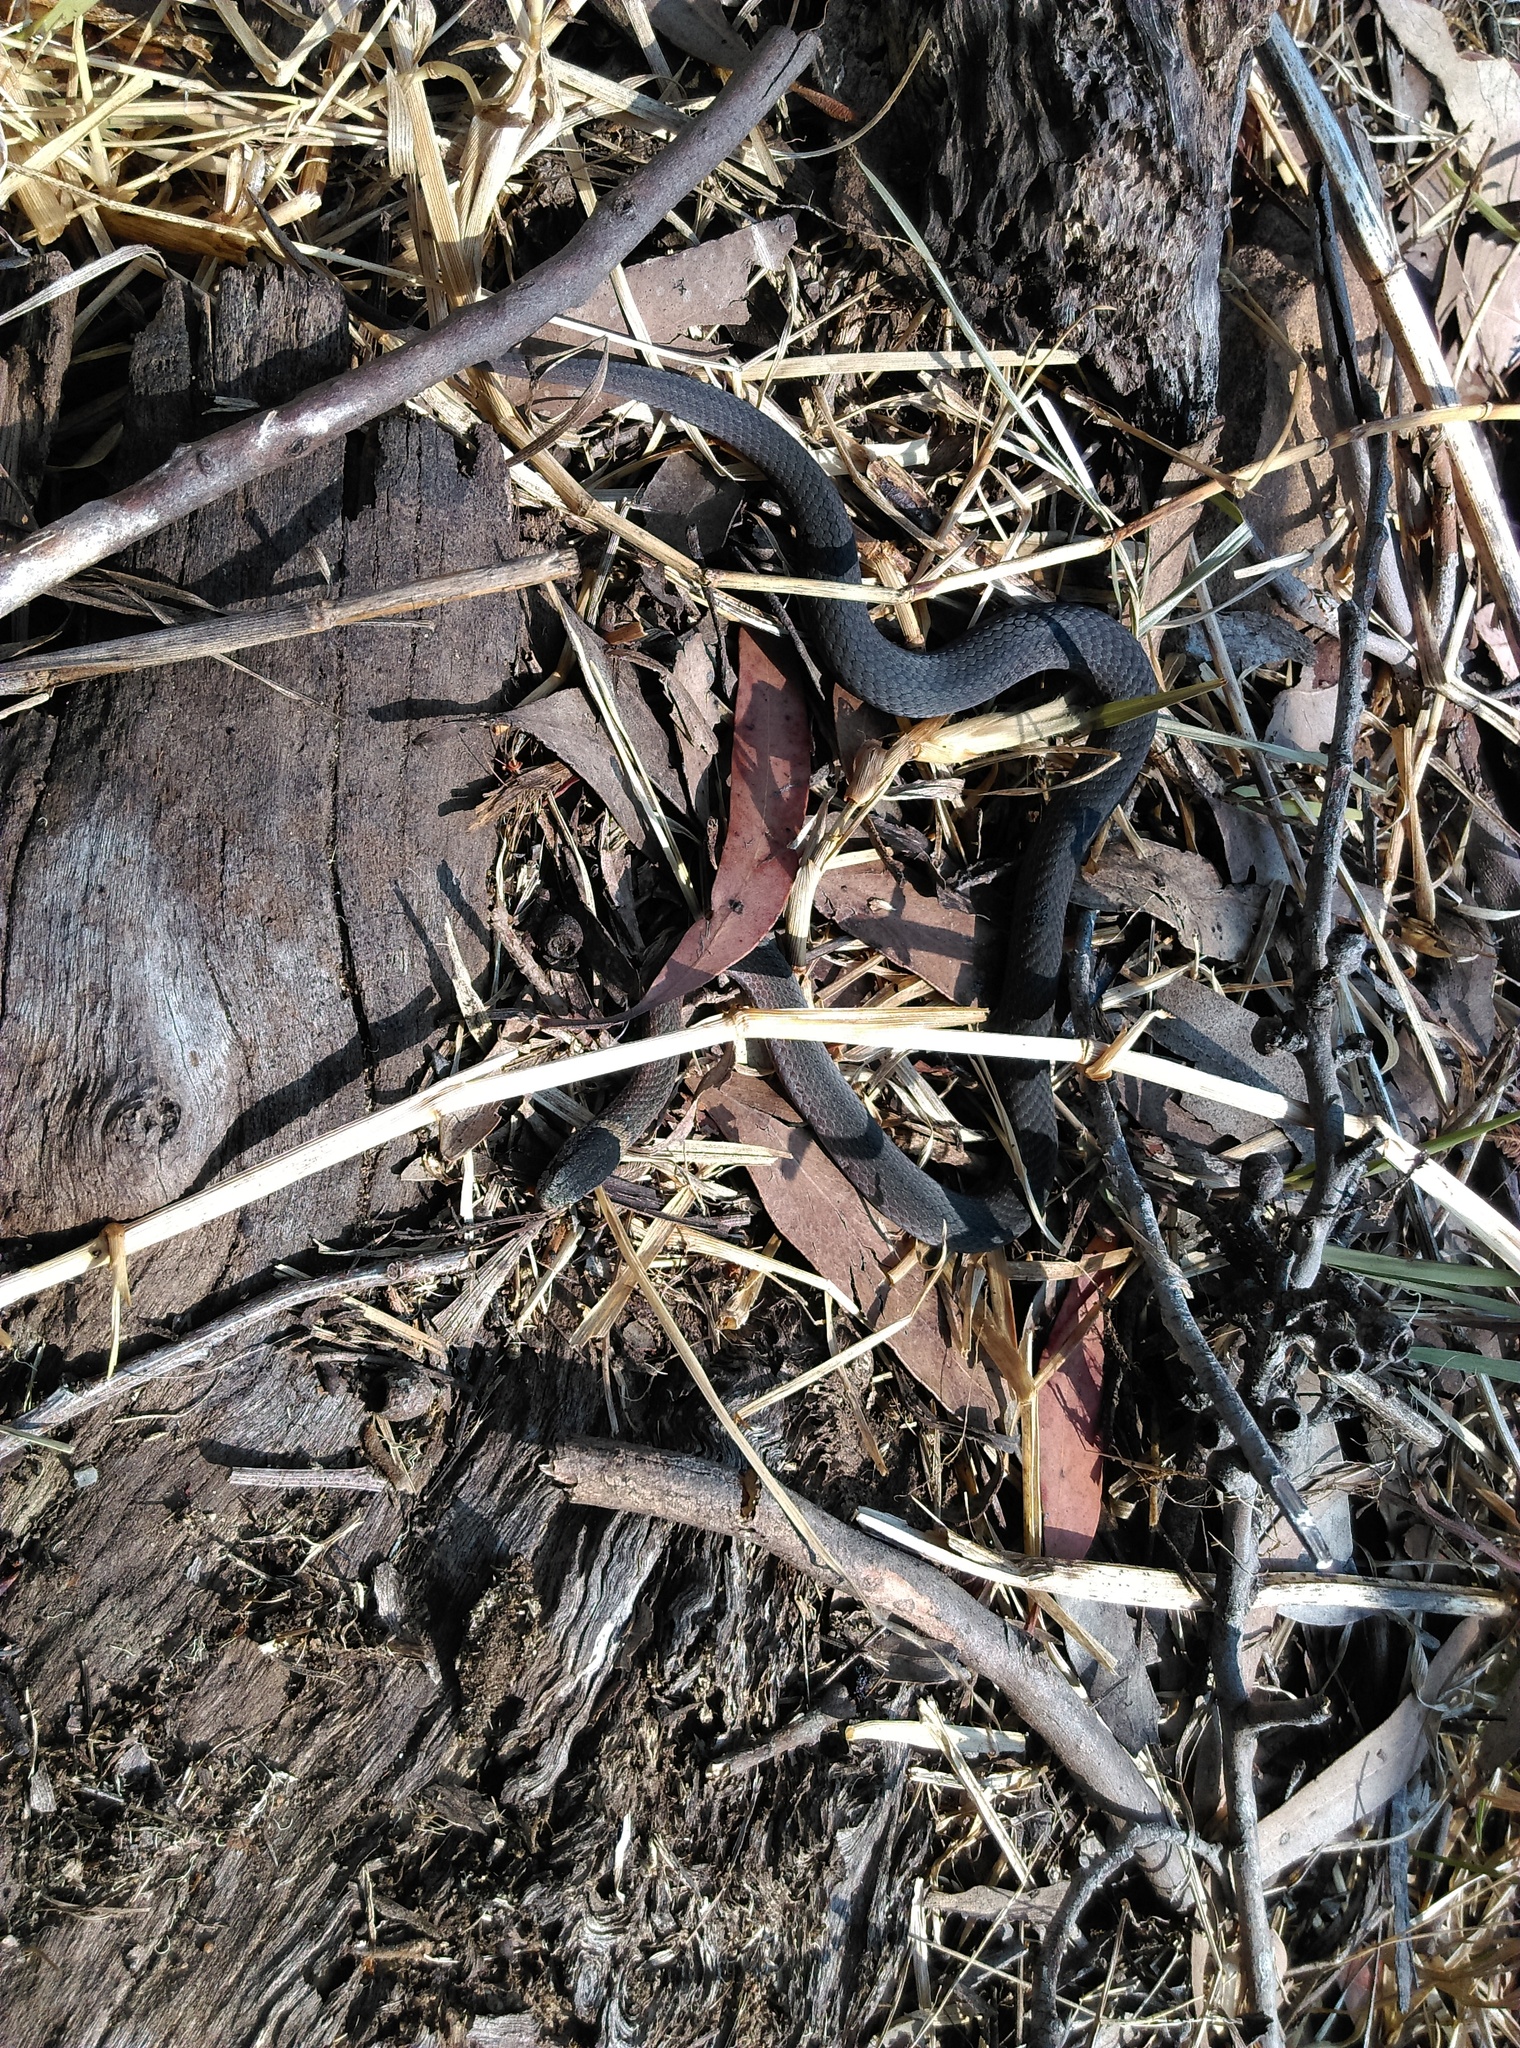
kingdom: Animalia
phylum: Chordata
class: Squamata
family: Elapidae
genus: Drysdalia
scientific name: Drysdalia rhodogaster
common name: Mustard-bellied snake
